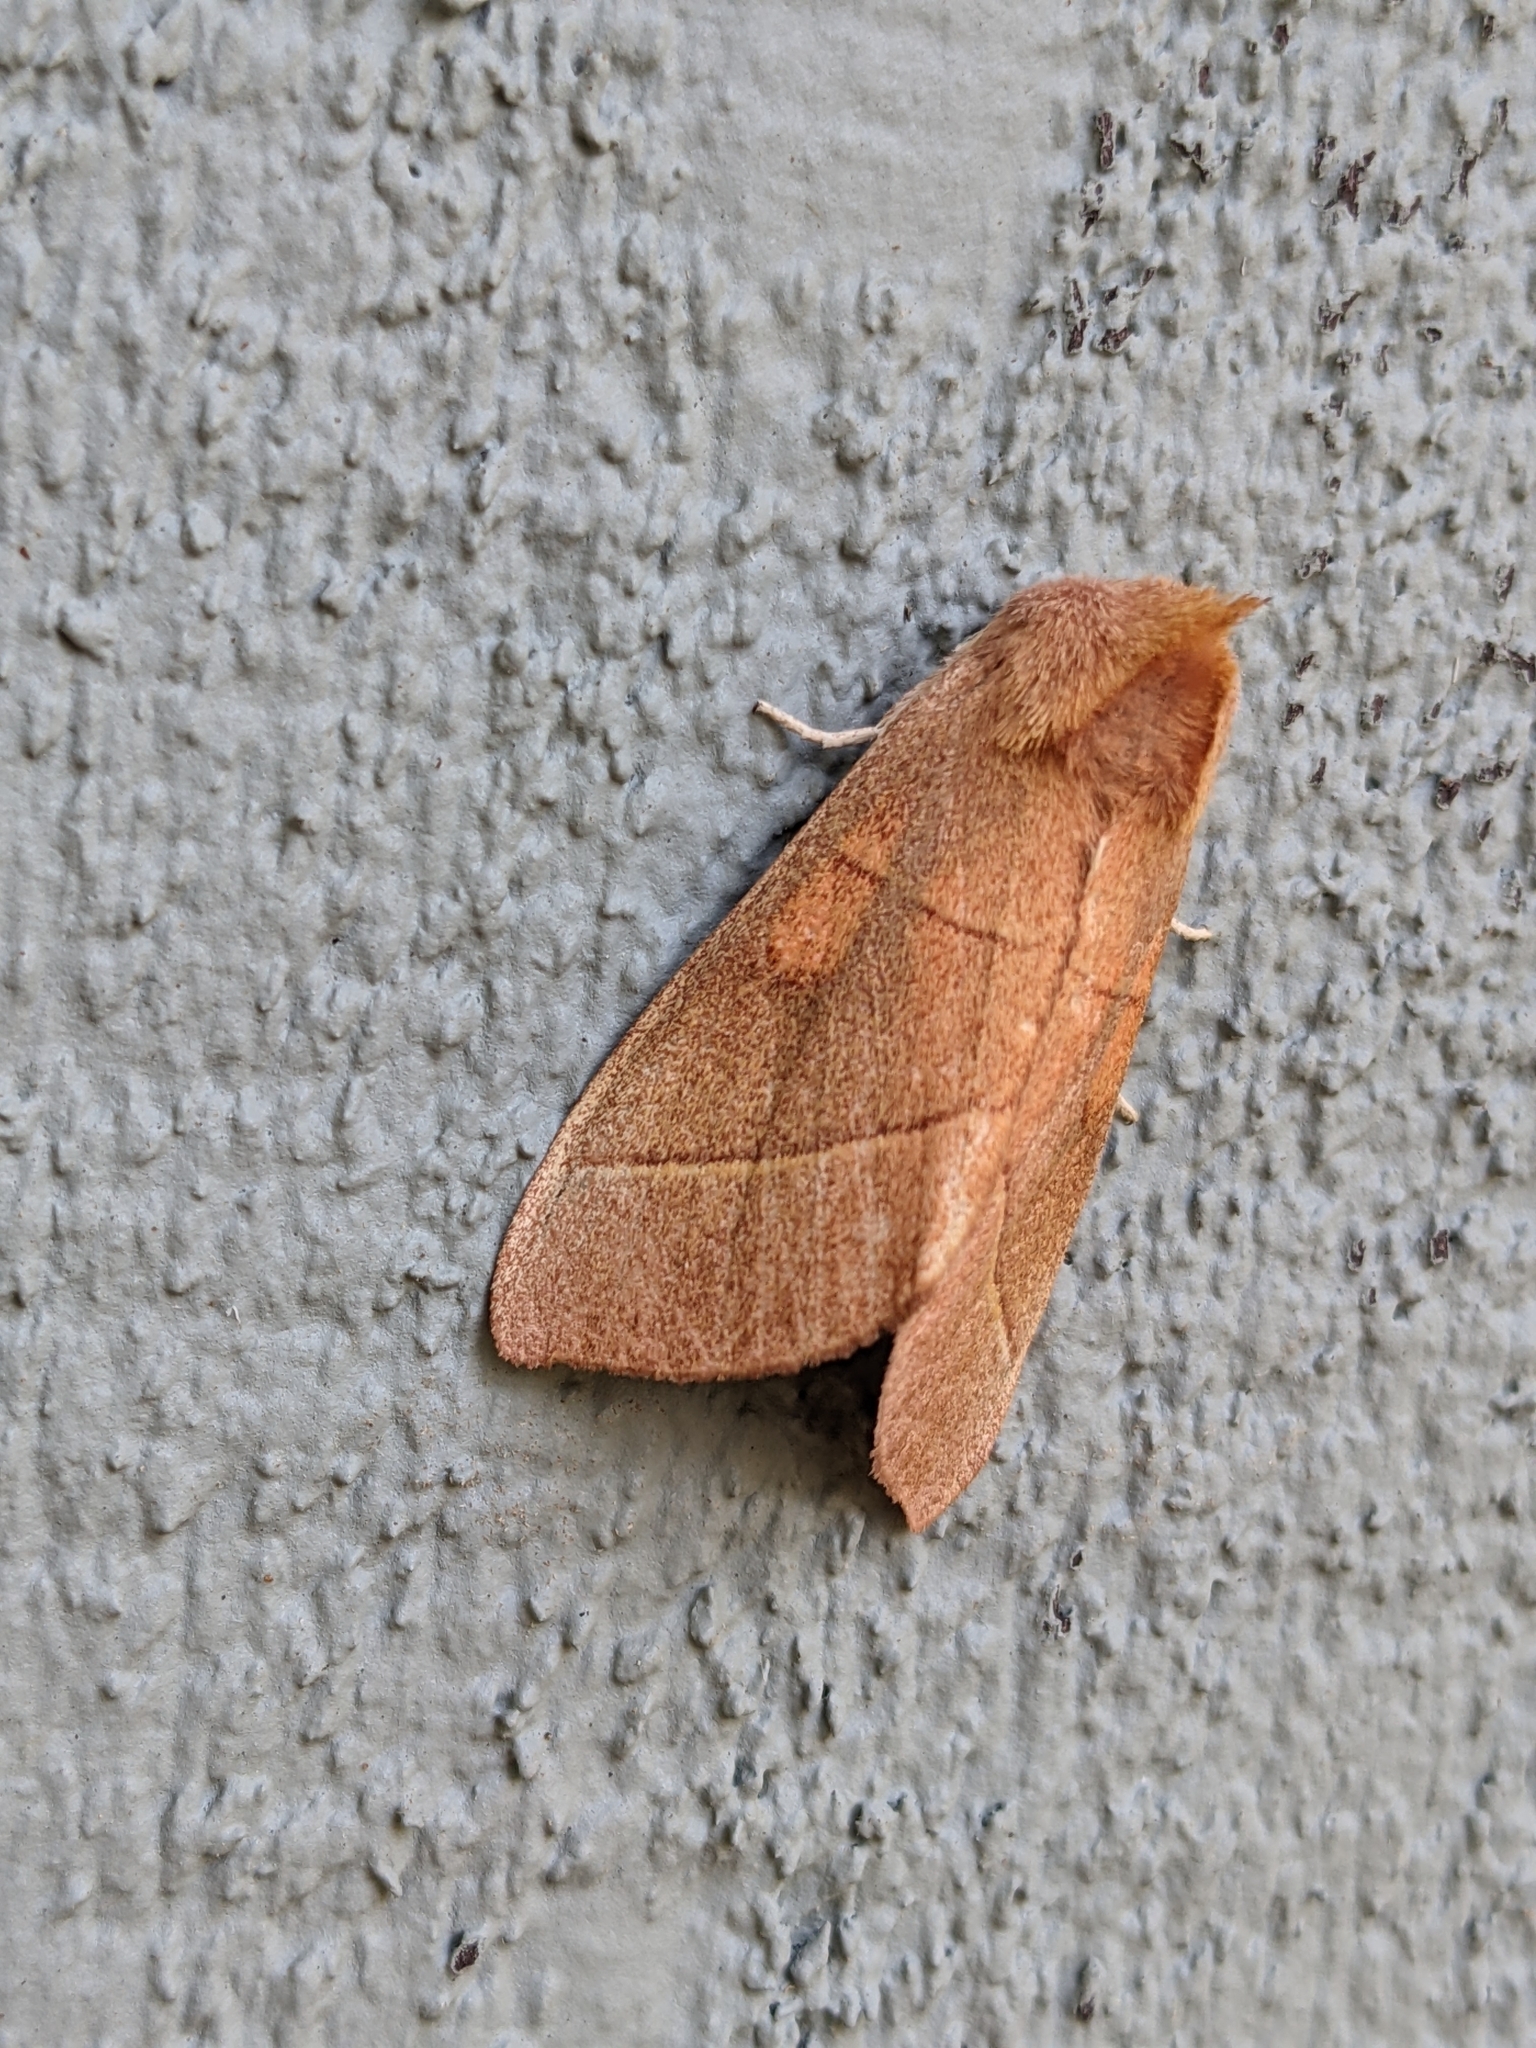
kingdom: Animalia
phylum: Arthropoda
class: Insecta
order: Lepidoptera
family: Notodontidae
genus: Nadata
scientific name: Nadata gibbosa
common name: White-dotted prominent
